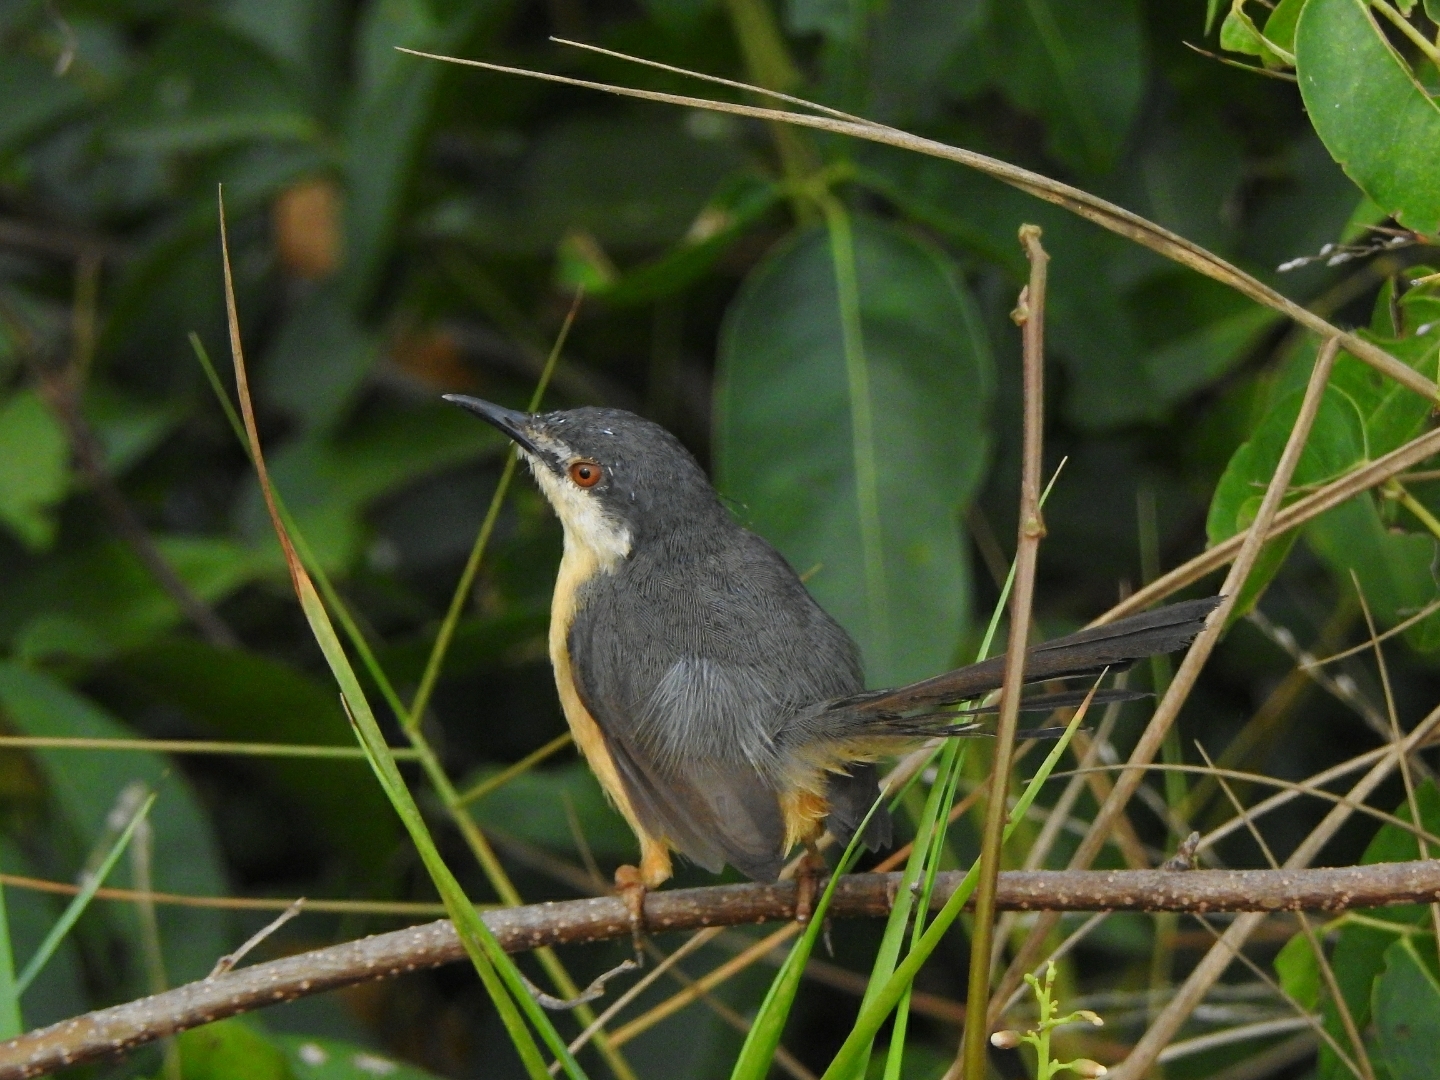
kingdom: Animalia
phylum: Chordata
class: Aves
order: Passeriformes
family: Cisticolidae
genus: Prinia
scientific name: Prinia socialis
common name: Ashy prinia
